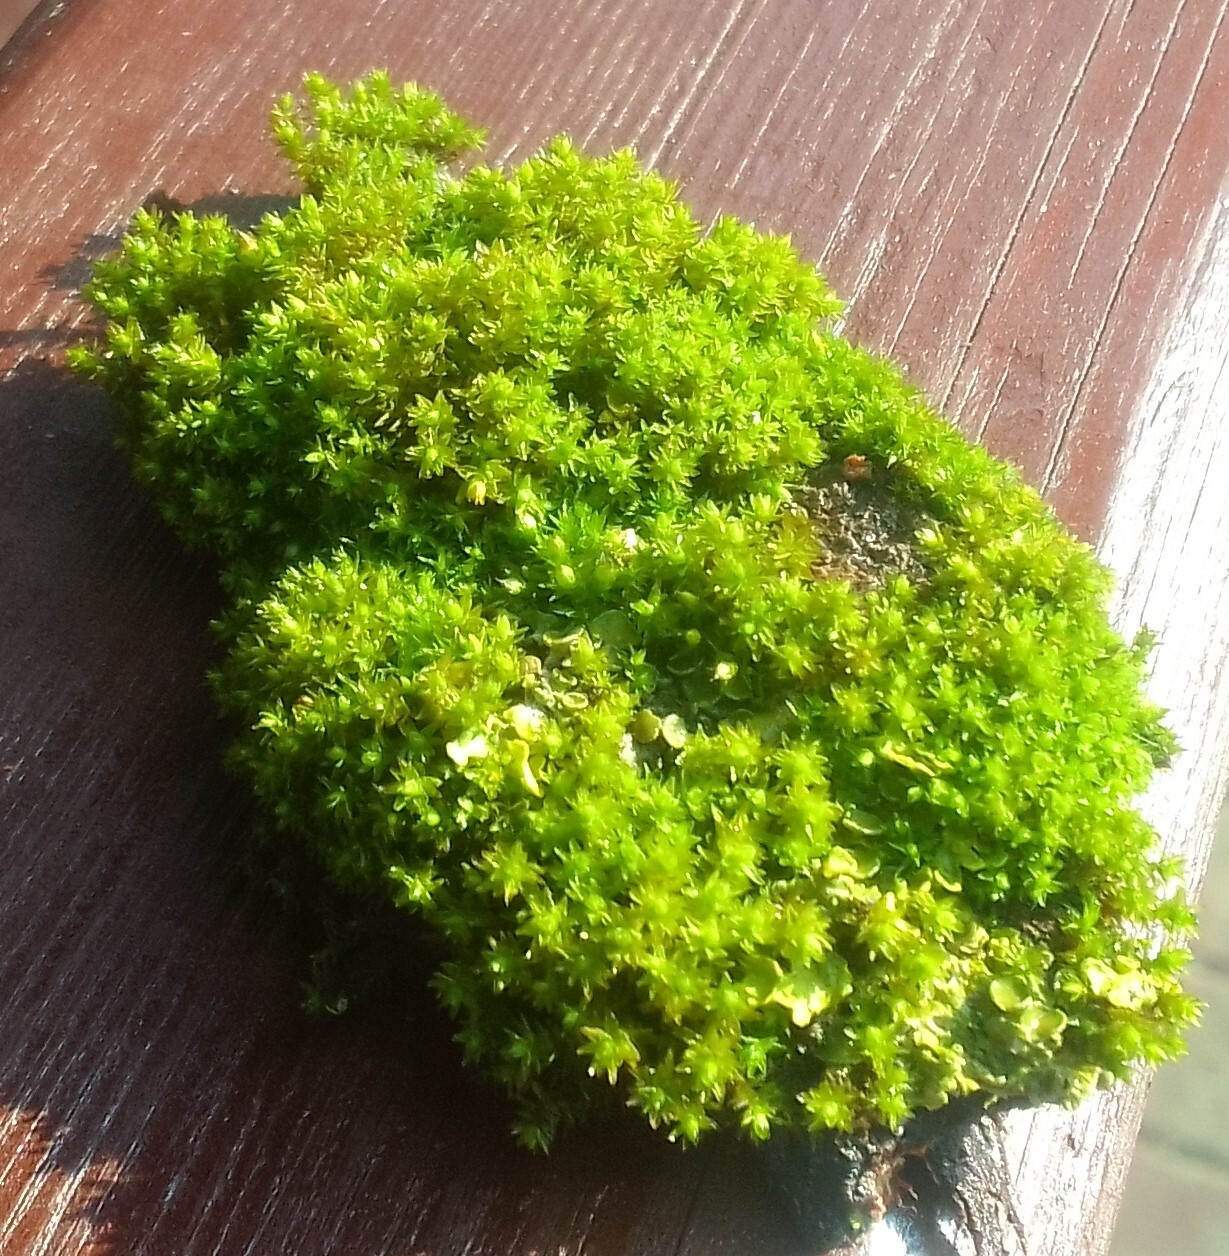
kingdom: Plantae
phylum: Bryophyta
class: Bryopsida
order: Orthotrichales
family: Orthotrichaceae
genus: Nyholmiella
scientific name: Nyholmiella obtusifolia
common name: Blunt-leaved bristle-moss
